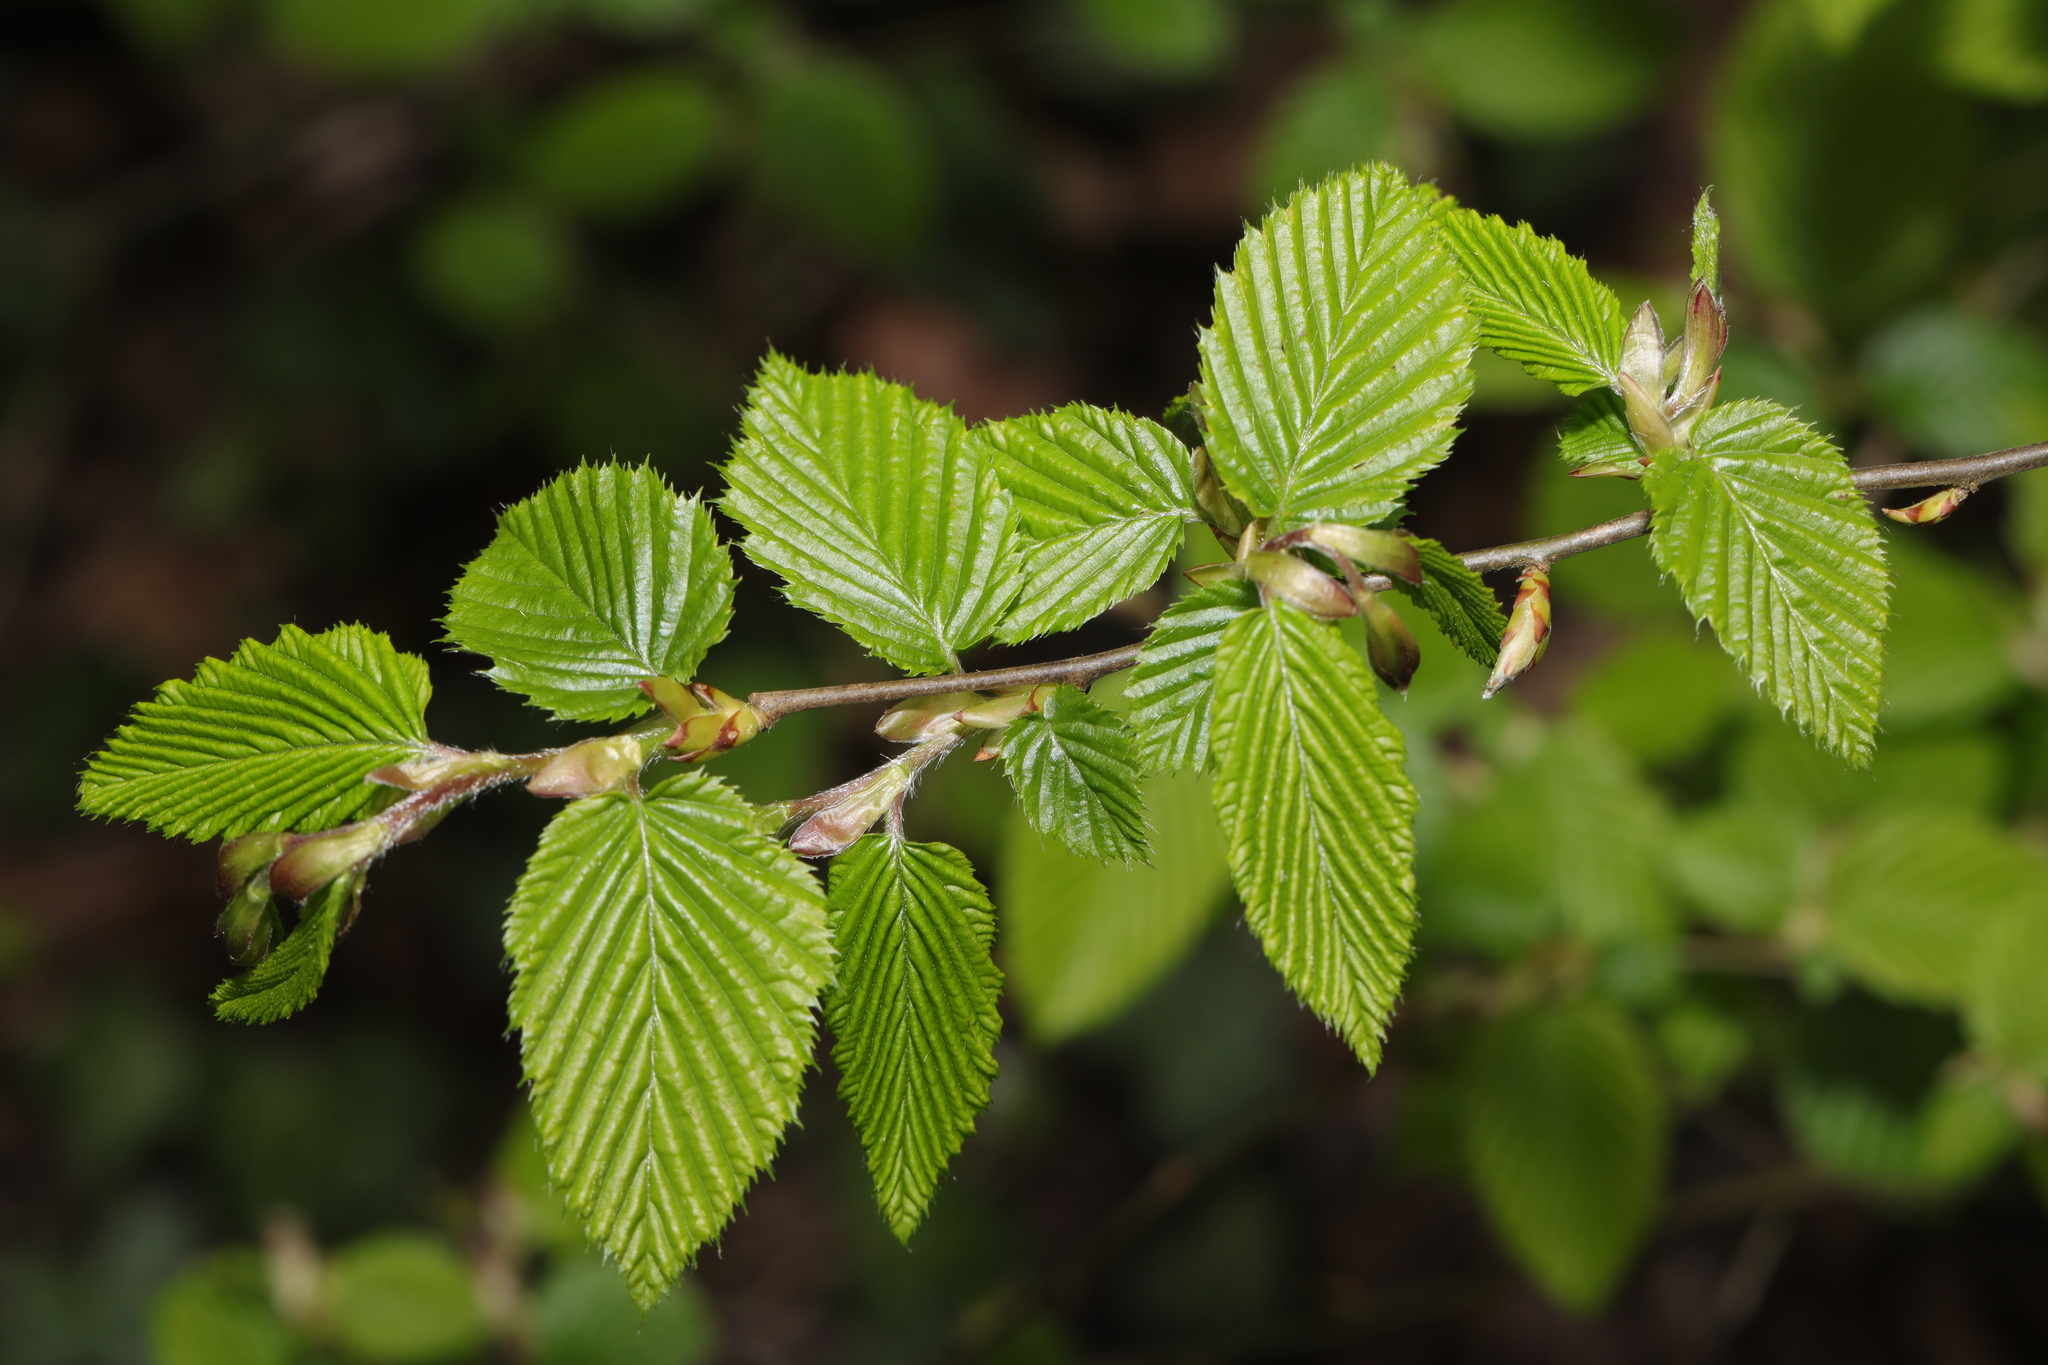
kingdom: Plantae
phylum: Tracheophyta
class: Magnoliopsida
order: Fagales
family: Betulaceae
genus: Carpinus
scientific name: Carpinus betulus
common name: Hornbeam
